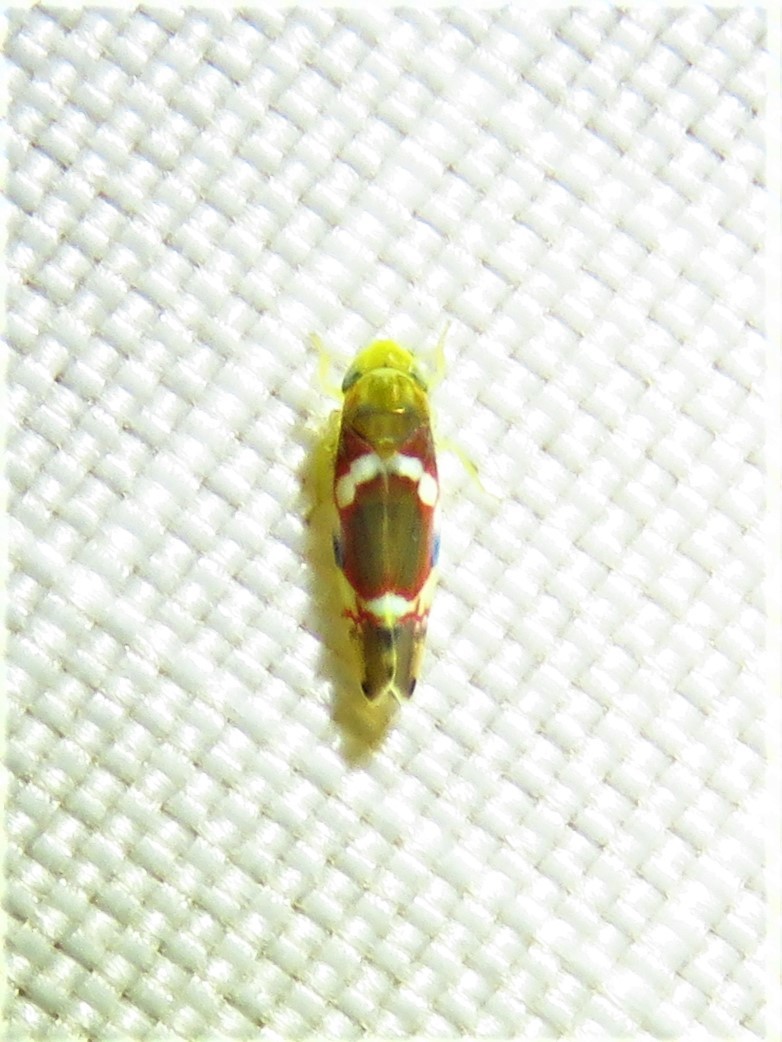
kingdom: Animalia
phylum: Arthropoda
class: Insecta
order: Hemiptera
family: Cicadellidae
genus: Erythroneura
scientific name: Erythroneura vitis
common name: Grapevine leafhopper
